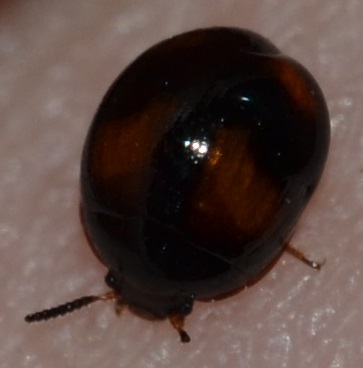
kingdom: Animalia
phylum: Arthropoda
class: Insecta
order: Coleoptera
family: Tenebrionidae
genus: Stethotrypes
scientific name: Stethotrypes
